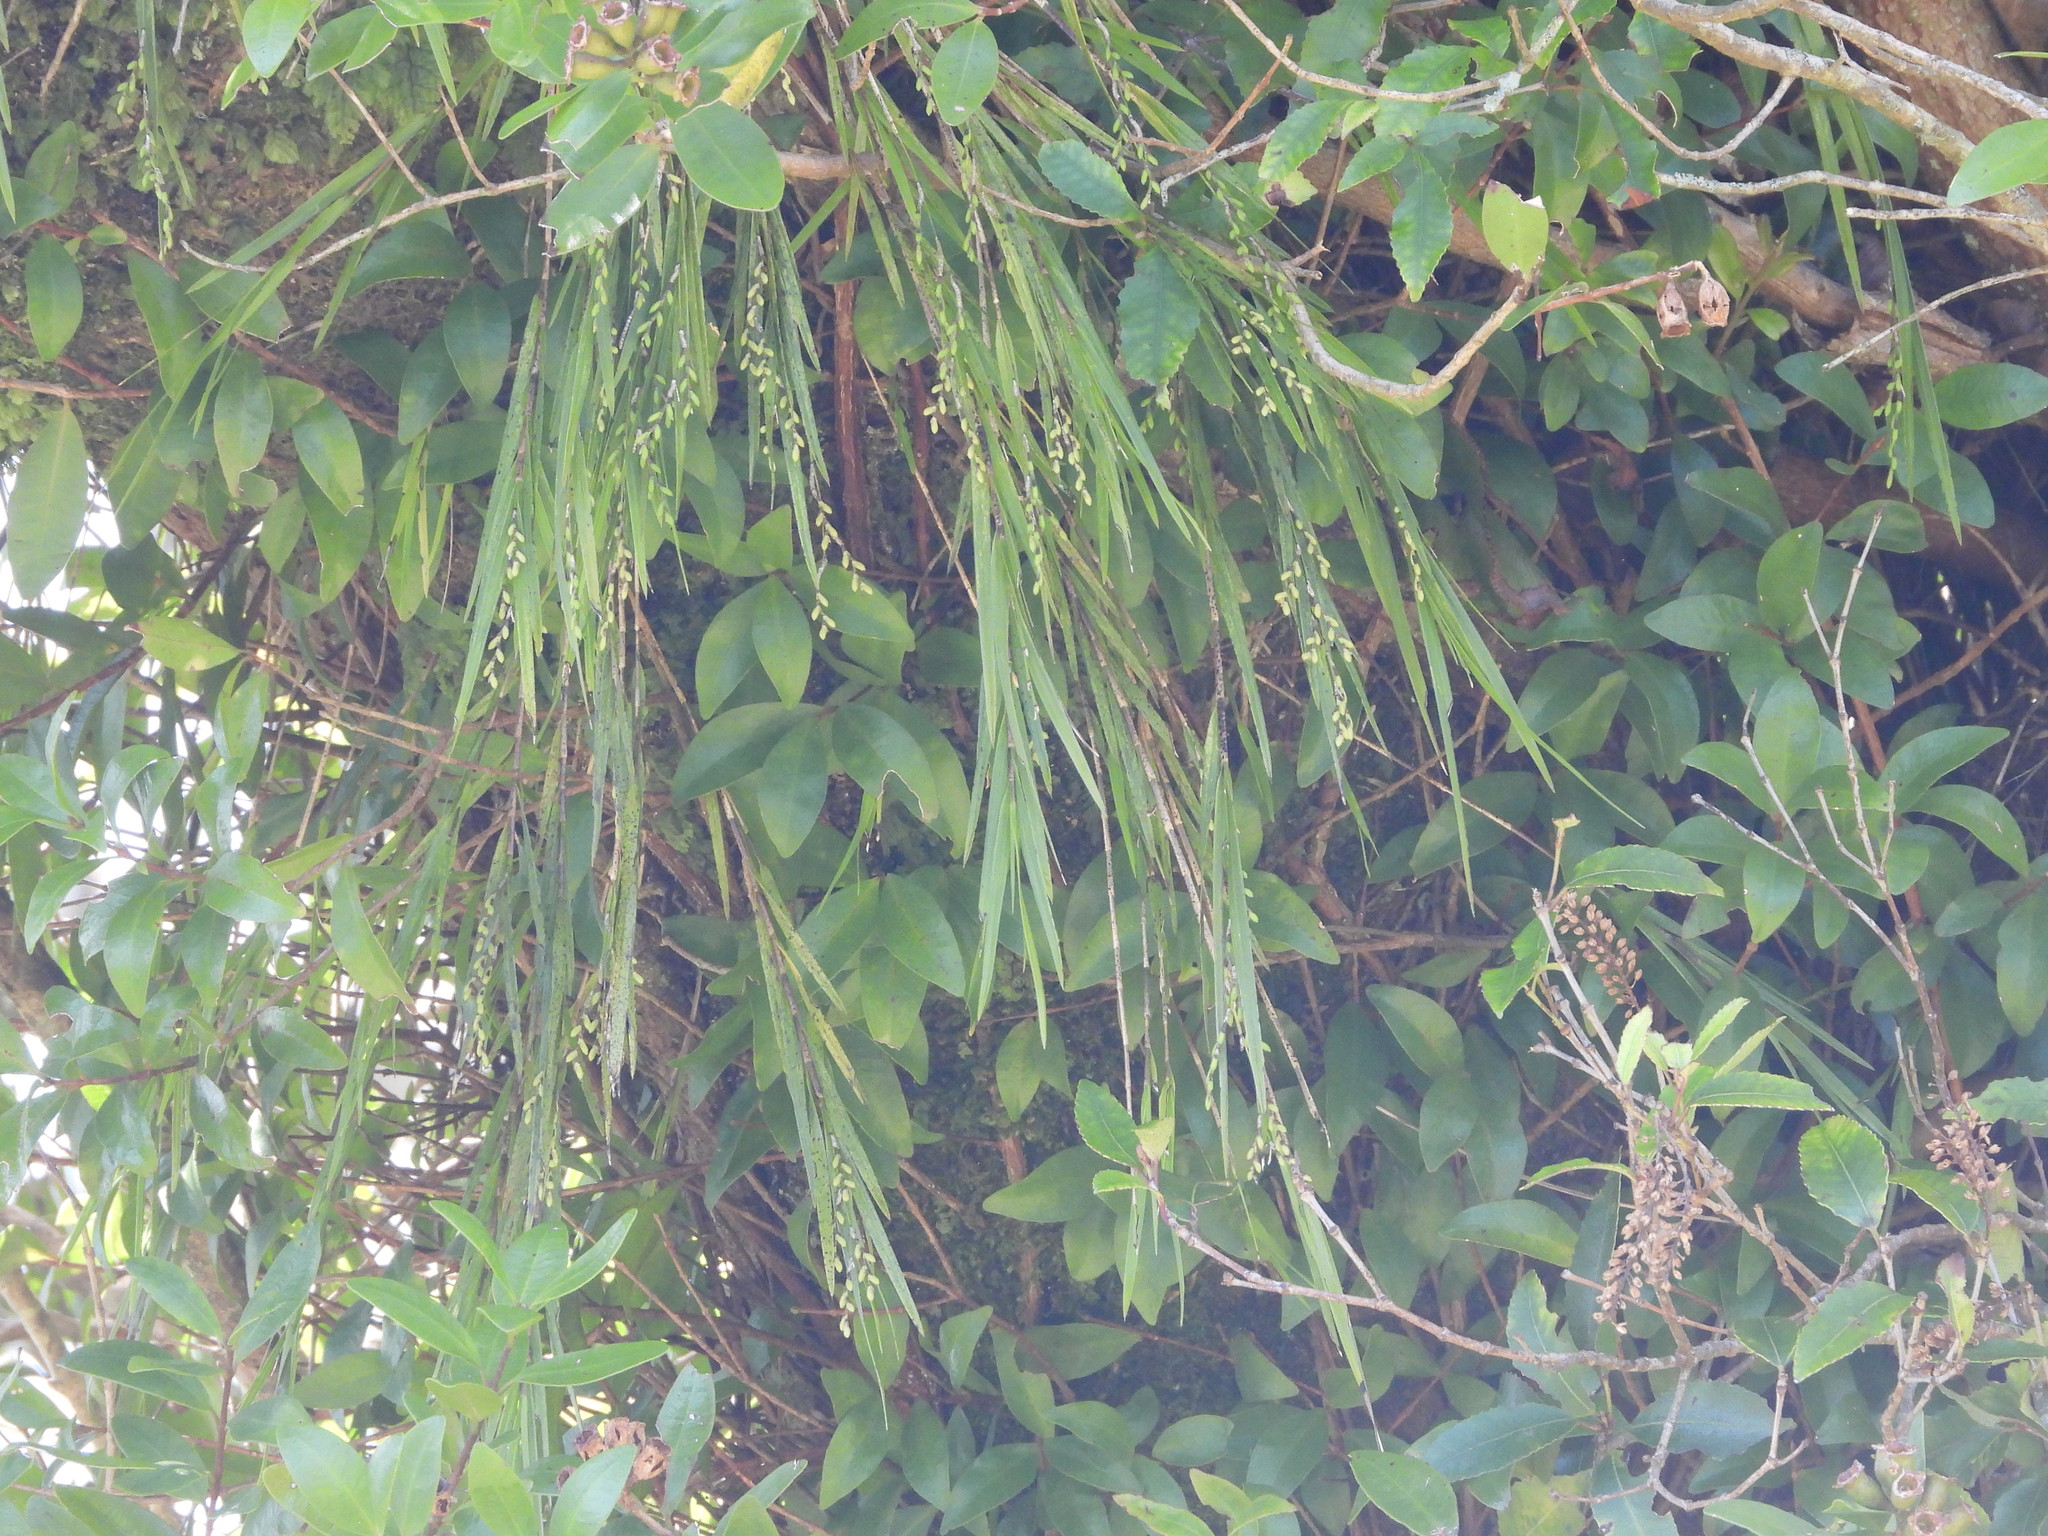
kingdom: Plantae
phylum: Tracheophyta
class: Liliopsida
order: Asparagales
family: Orchidaceae
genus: Earina
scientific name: Earina mucronata
